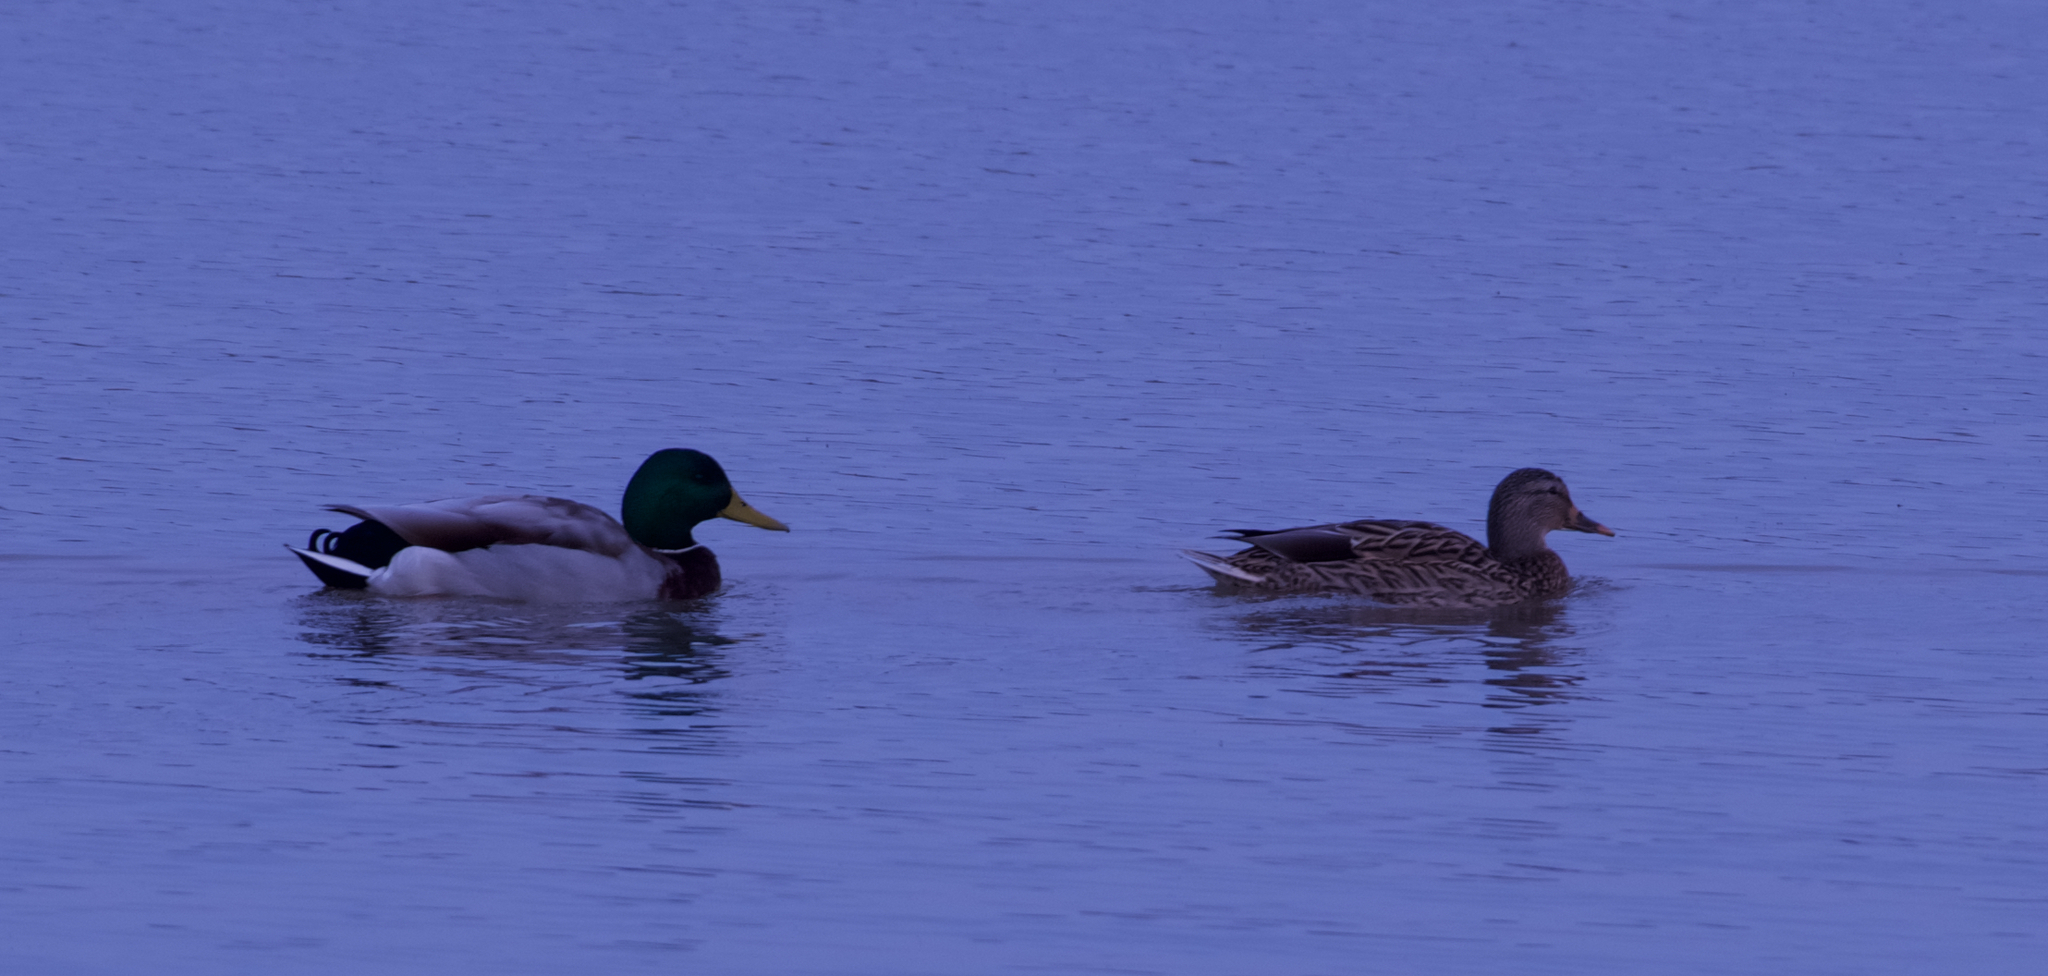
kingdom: Animalia
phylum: Chordata
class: Aves
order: Anseriformes
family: Anatidae
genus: Anas
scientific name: Anas platyrhynchos
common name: Mallard
